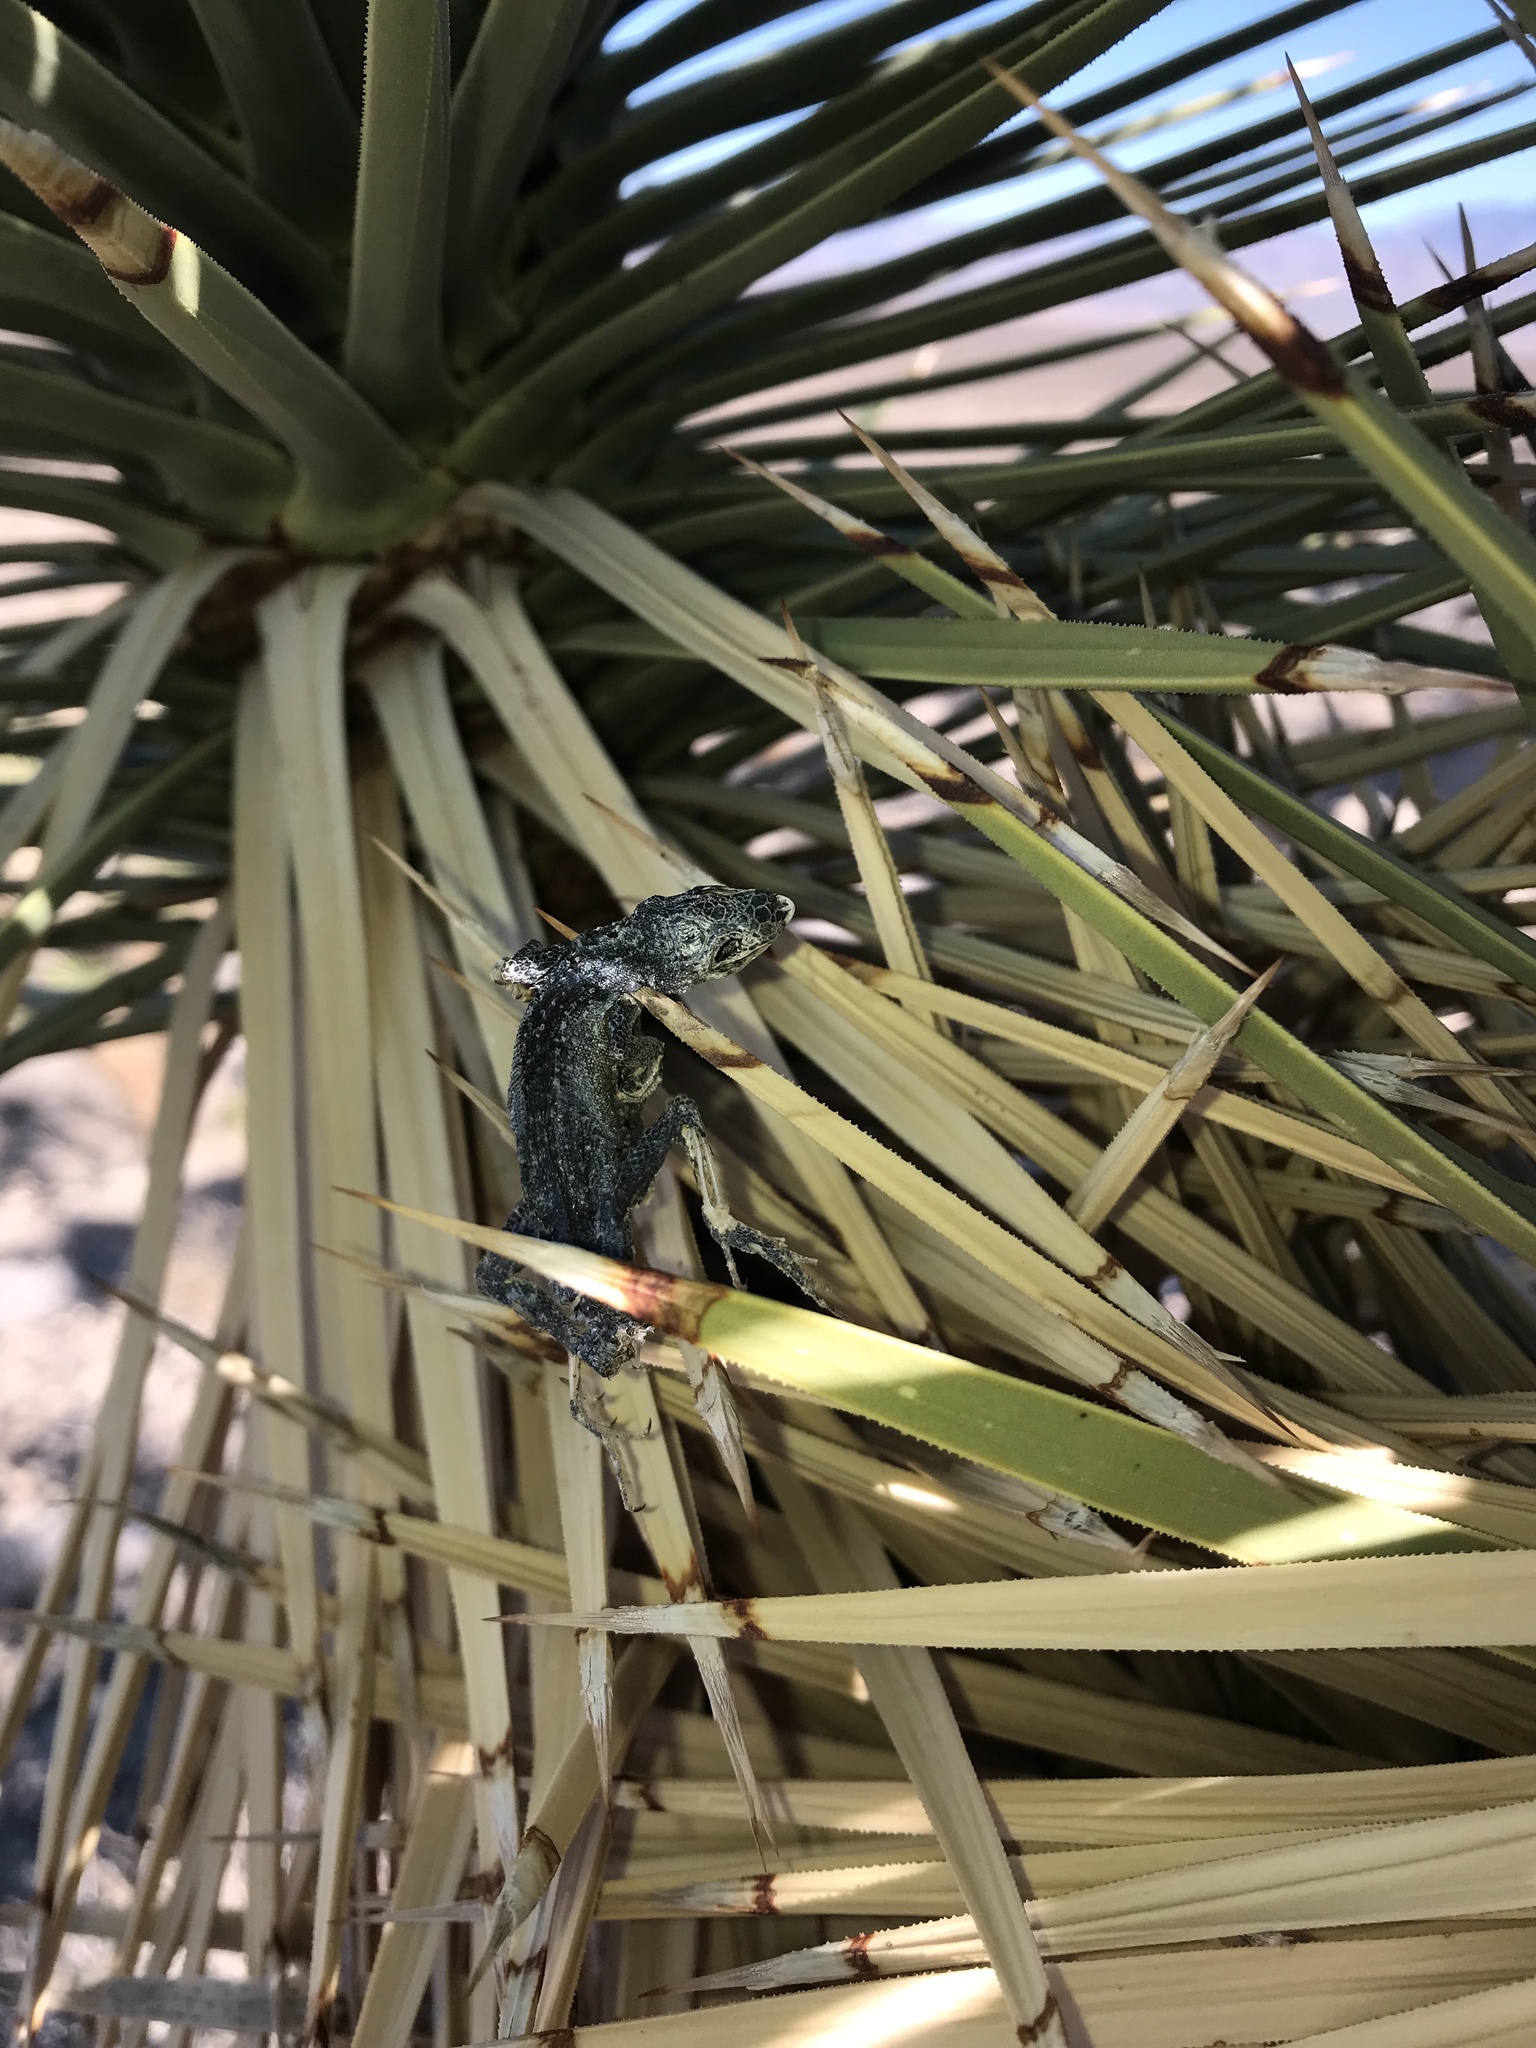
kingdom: Animalia
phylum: Chordata
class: Squamata
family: Phrynosomatidae
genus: Uta
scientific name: Uta stansburiana
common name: Side-blotched lizard
